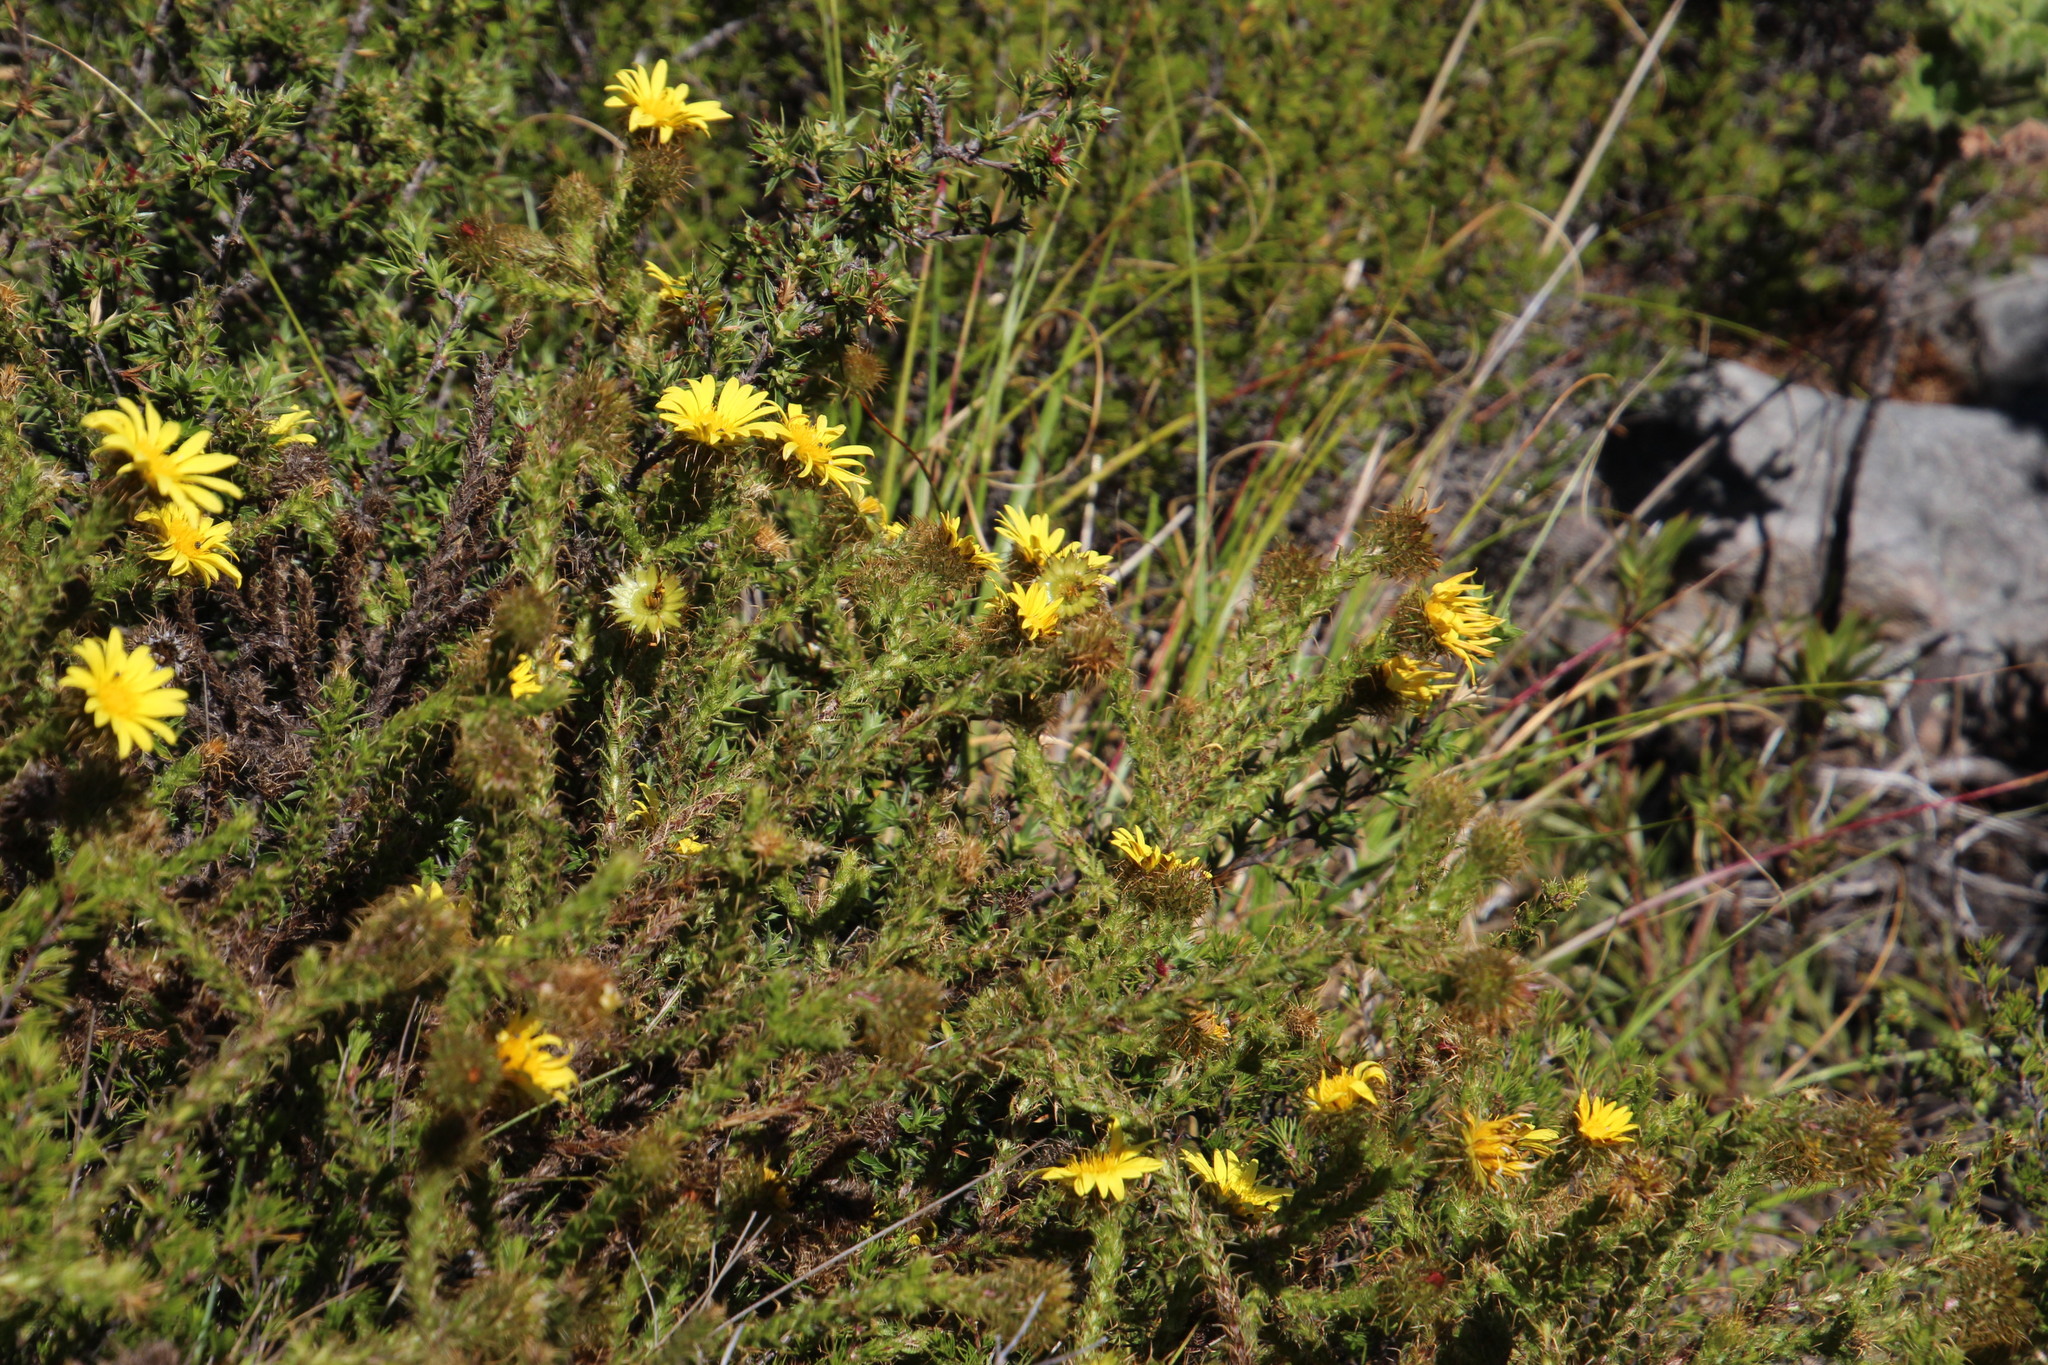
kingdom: Plantae
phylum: Tracheophyta
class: Magnoliopsida
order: Asterales
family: Asteraceae
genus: Cullumia
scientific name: Cullumia reticulata
